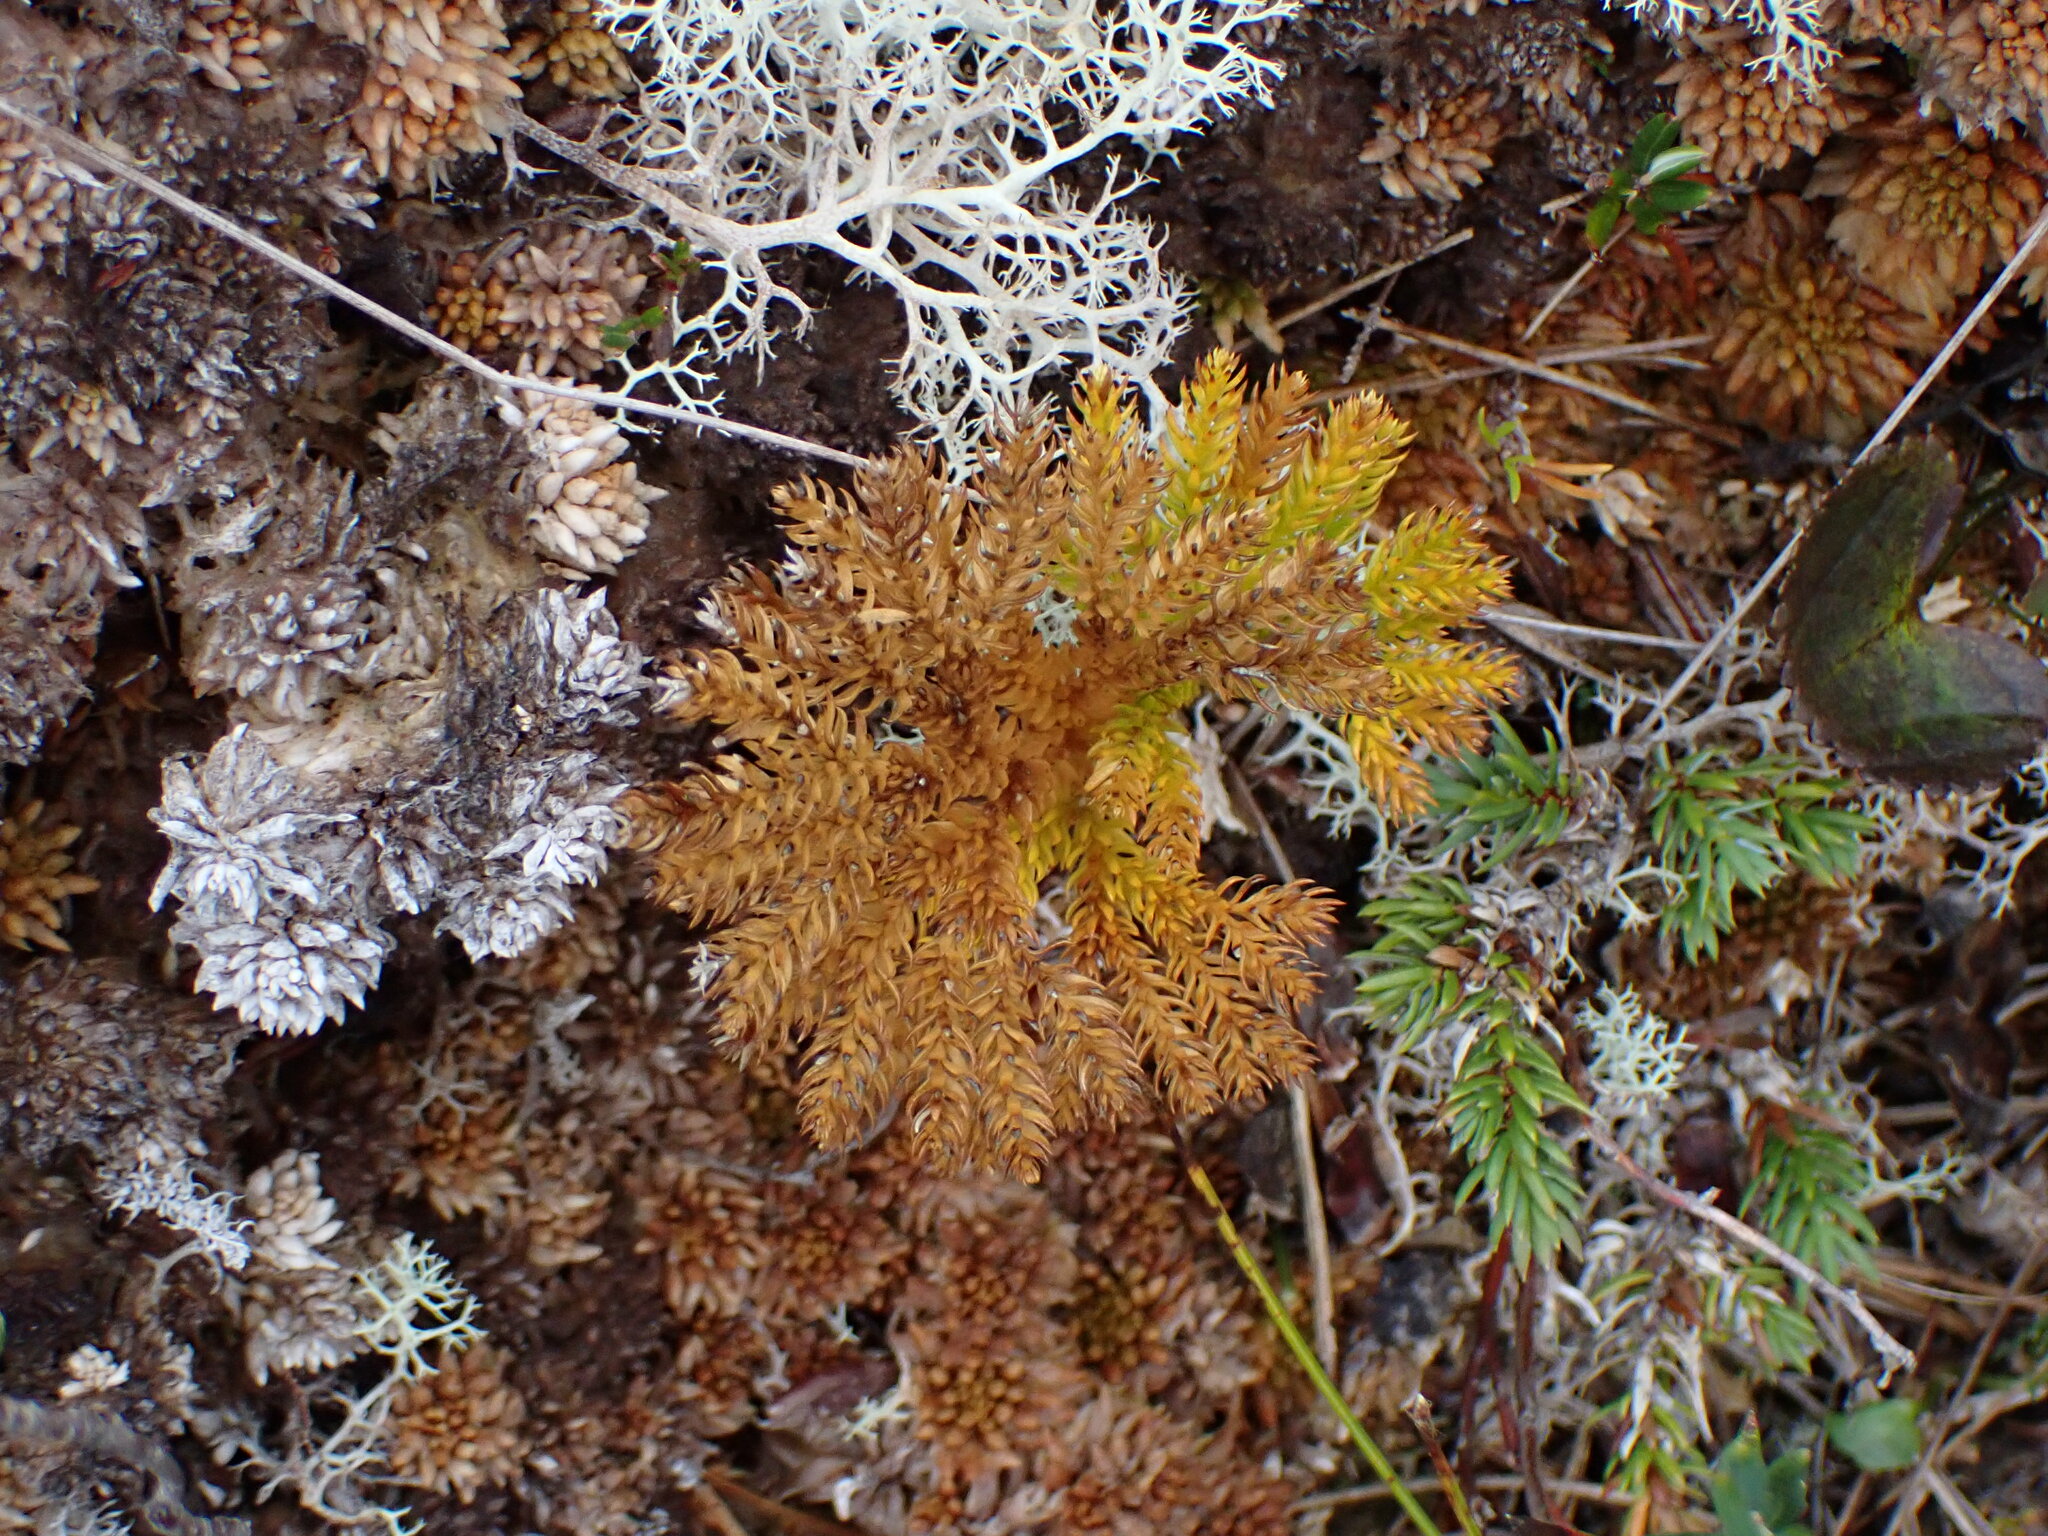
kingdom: Plantae
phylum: Tracheophyta
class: Lycopodiopsida
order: Lycopodiales
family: Lycopodiaceae
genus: Dendrolycopodium
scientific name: Dendrolycopodium dendroideum
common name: Northern tree-clubmoss
